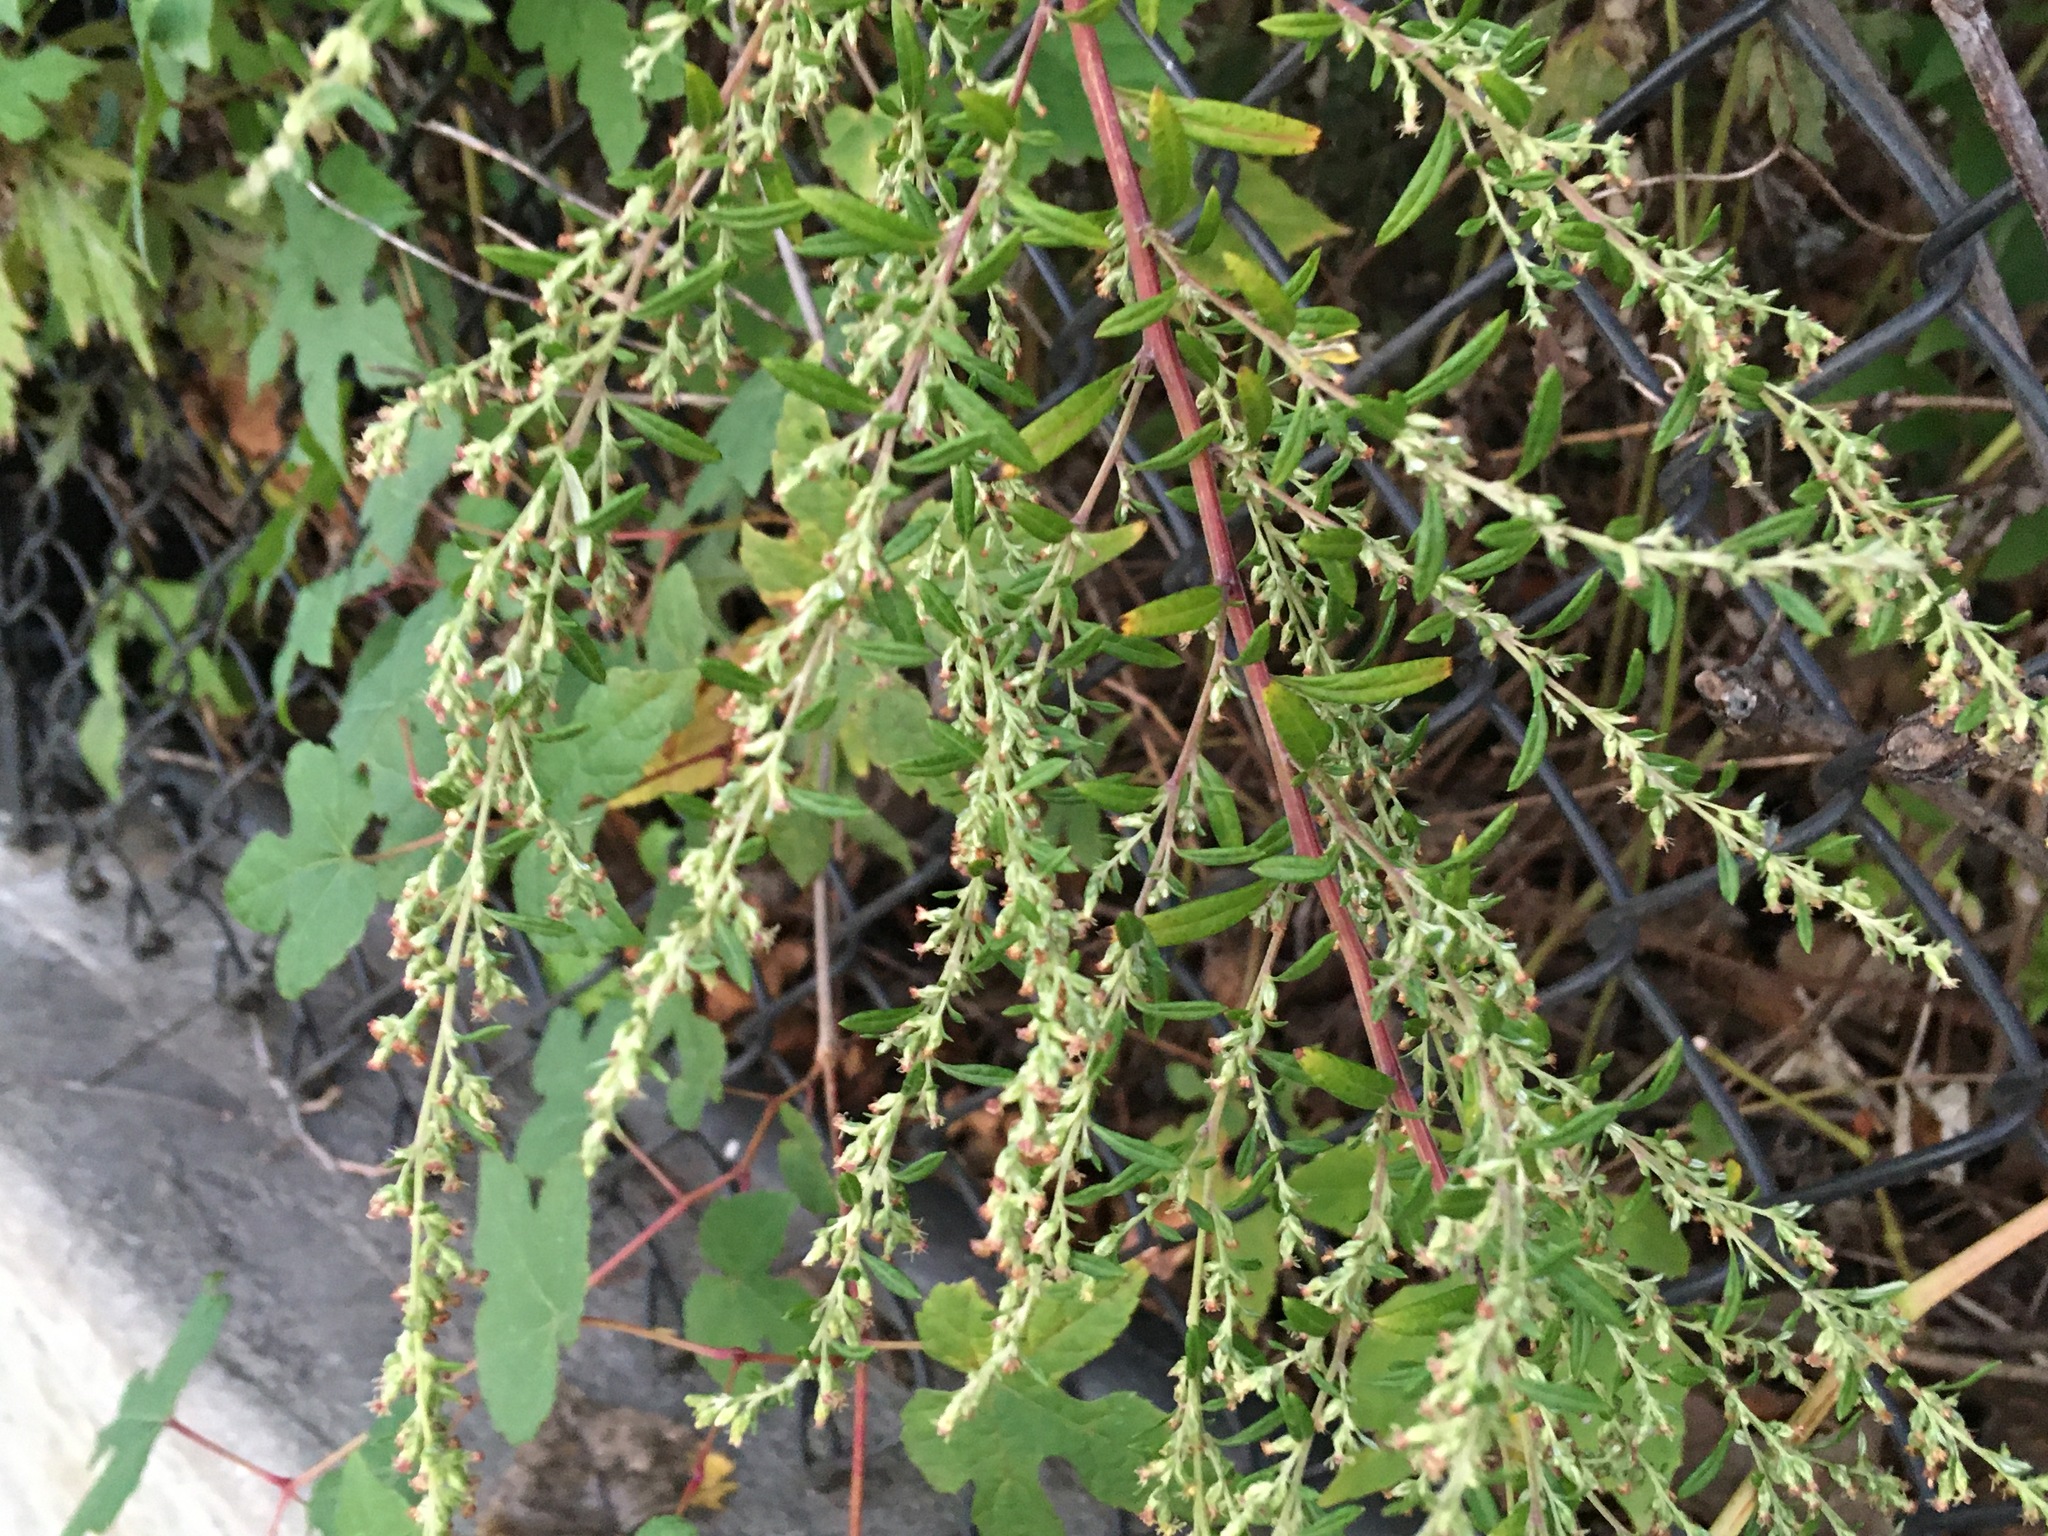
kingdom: Plantae
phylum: Tracheophyta
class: Magnoliopsida
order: Asterales
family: Asteraceae
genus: Artemisia
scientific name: Artemisia vulgaris
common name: Mugwort
